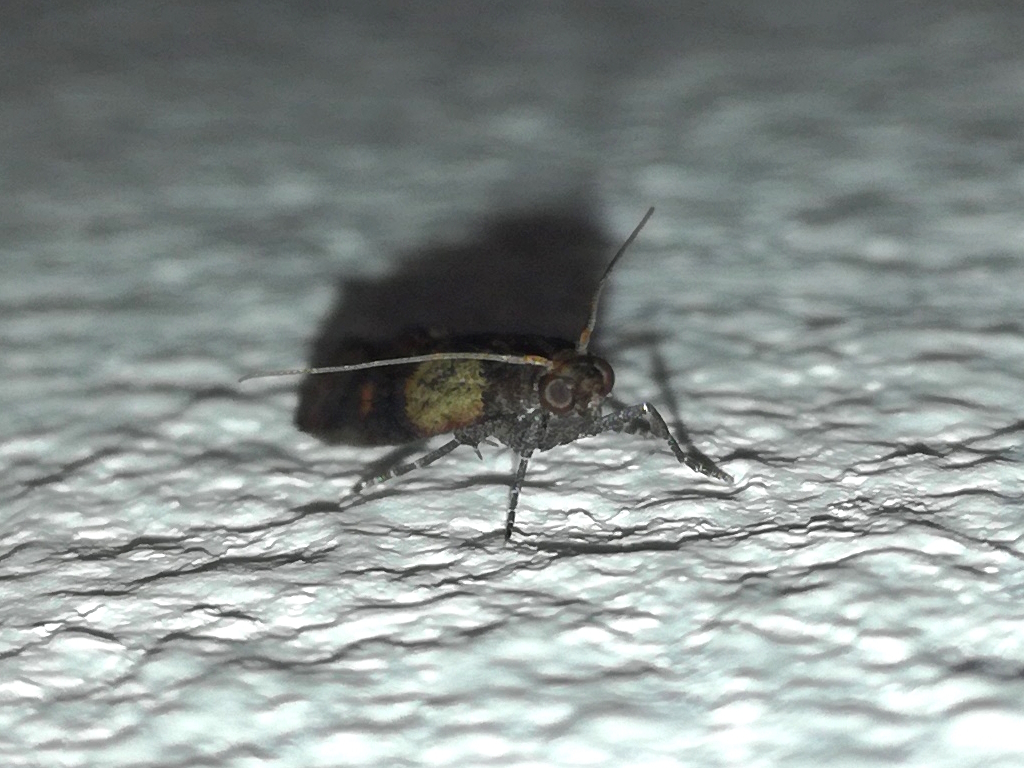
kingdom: Animalia
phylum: Arthropoda
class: Insecta
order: Lepidoptera
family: Pyralidae
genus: Plodia
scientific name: Plodia interpunctella
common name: Indian meal moth
